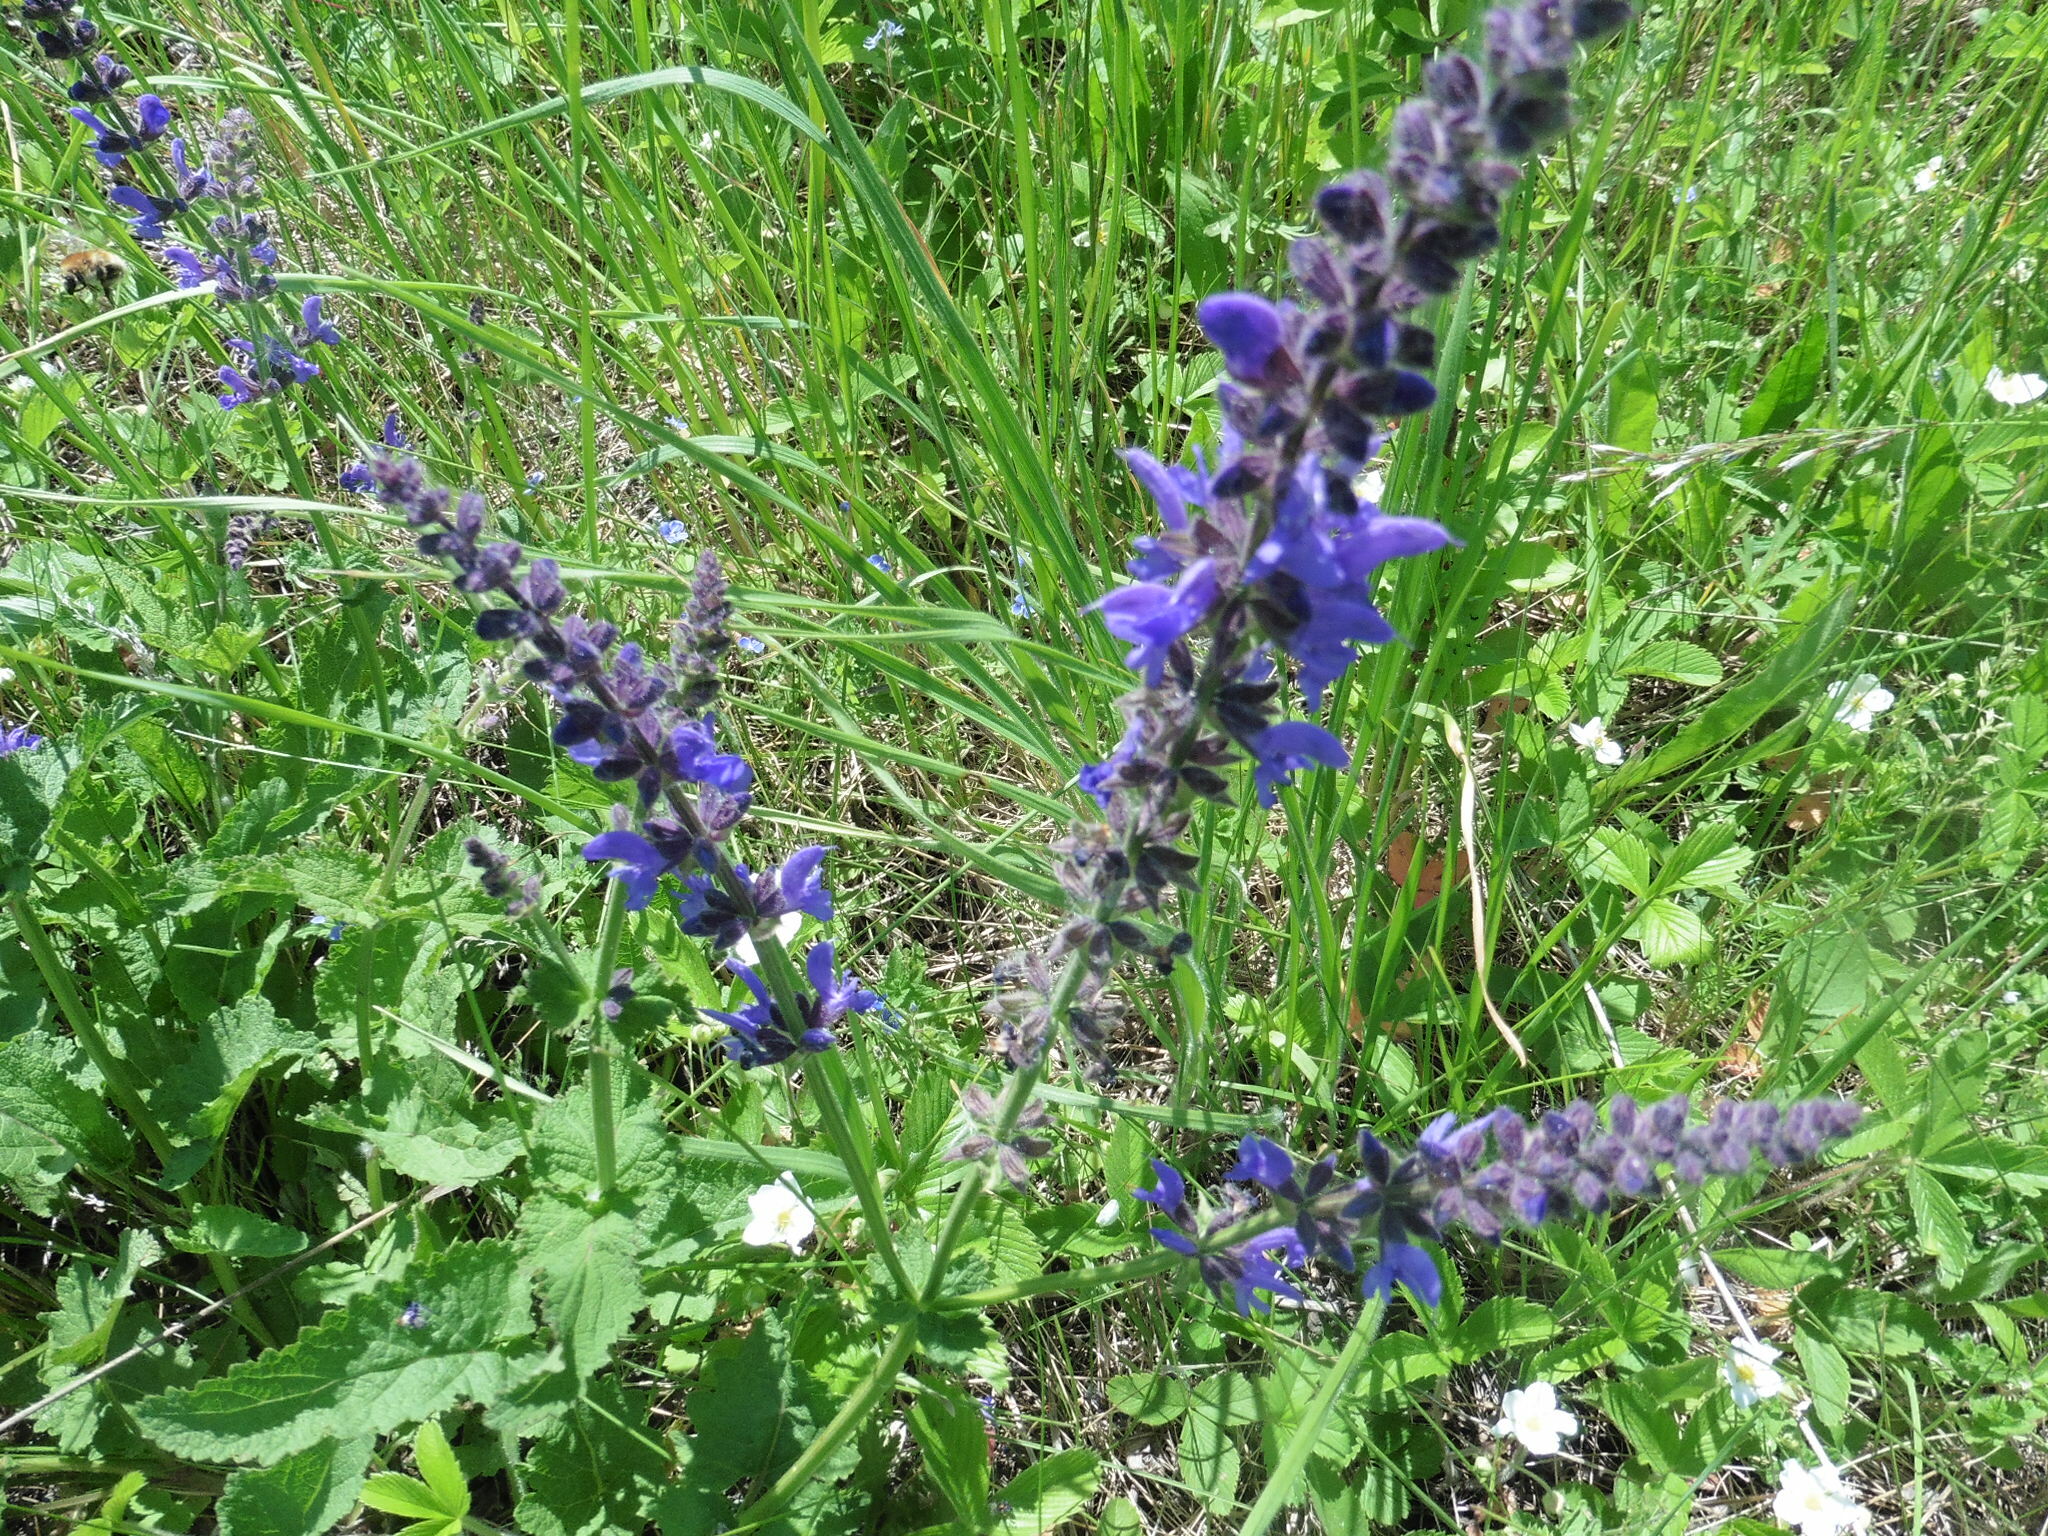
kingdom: Plantae
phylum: Tracheophyta
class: Magnoliopsida
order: Lamiales
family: Lamiaceae
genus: Salvia
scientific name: Salvia dumetorum
